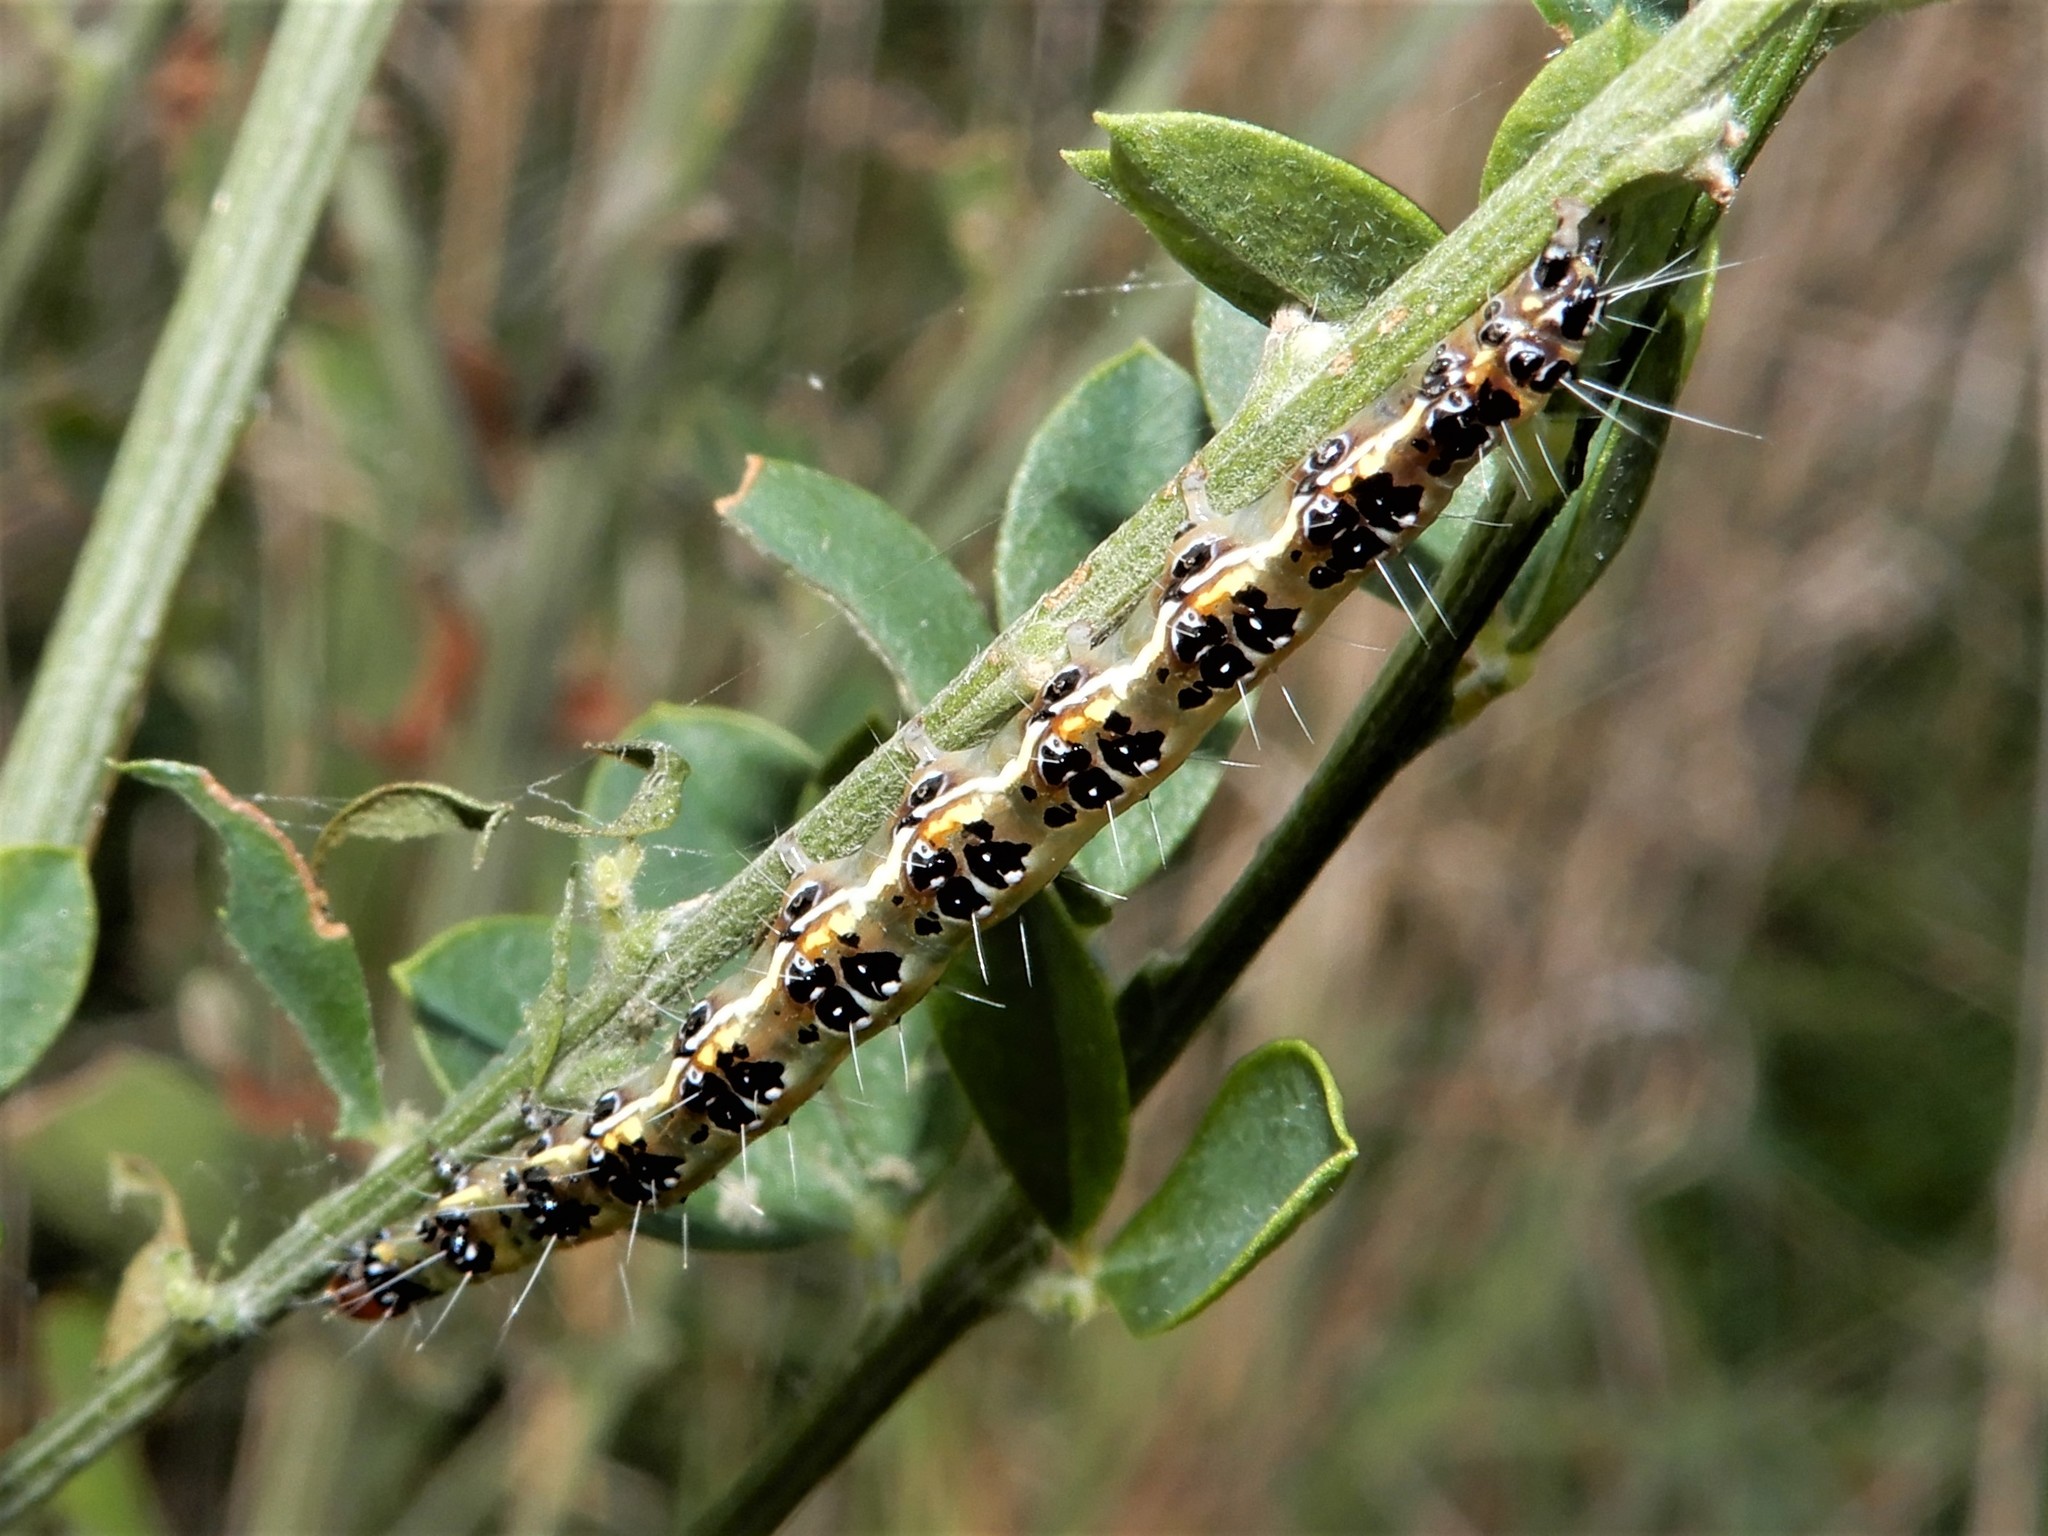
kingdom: Animalia
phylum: Arthropoda
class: Insecta
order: Lepidoptera
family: Crambidae
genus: Uresiphita
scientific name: Uresiphita
